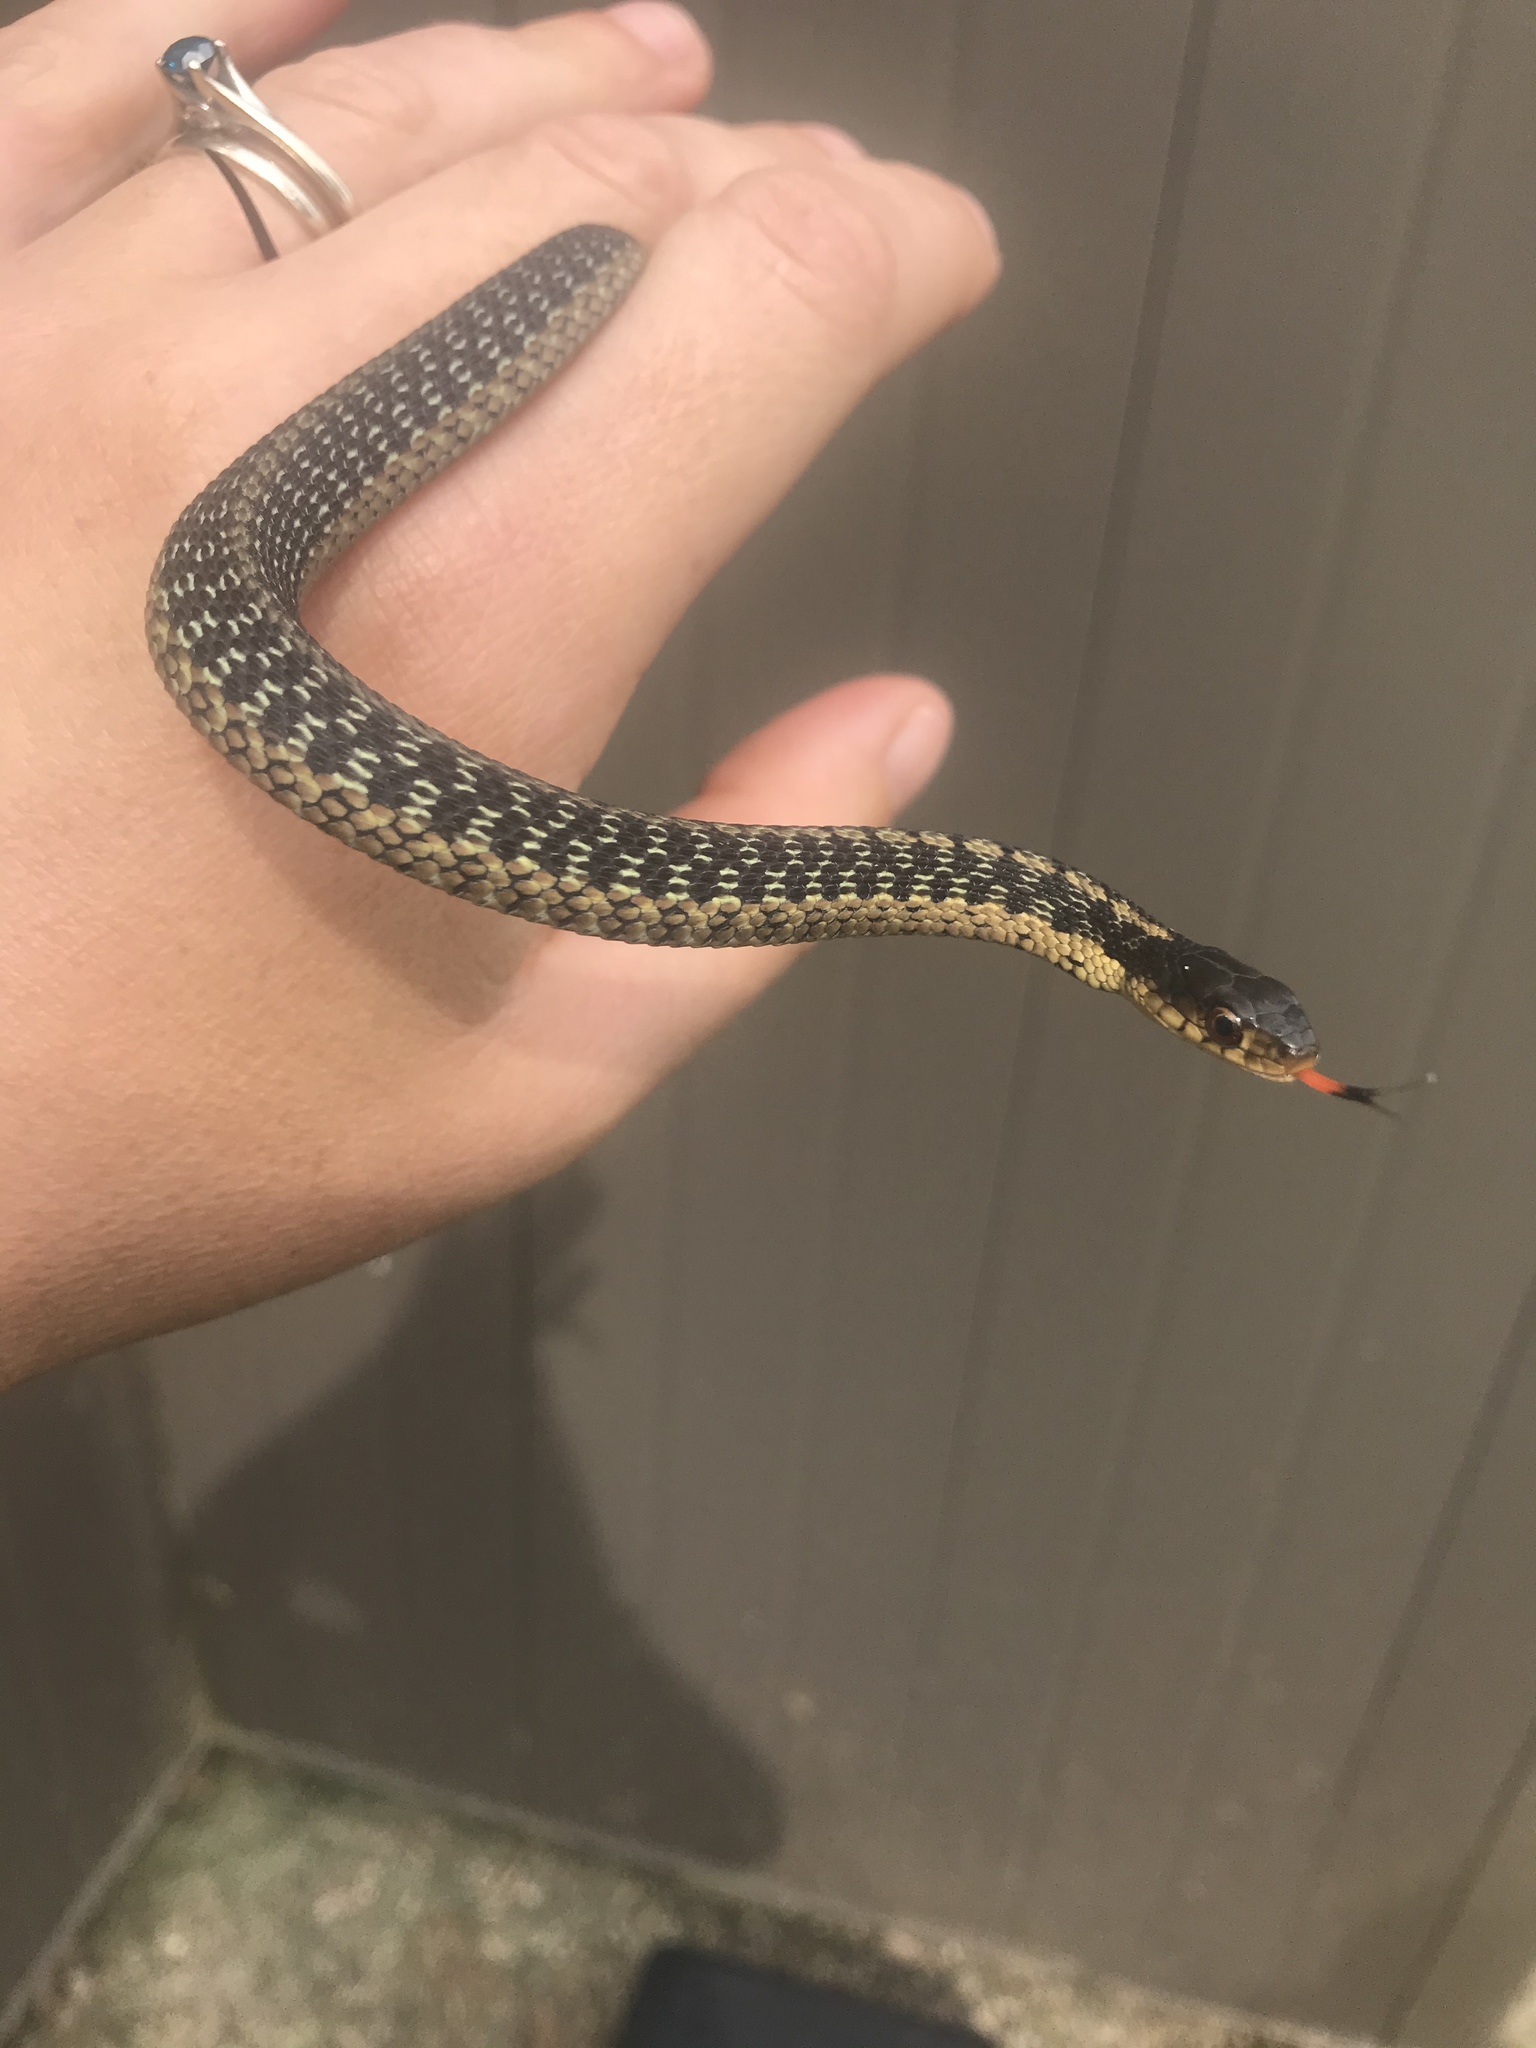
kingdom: Animalia
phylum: Chordata
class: Squamata
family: Colubridae
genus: Thamnophis
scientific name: Thamnophis sirtalis
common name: Common garter snake
